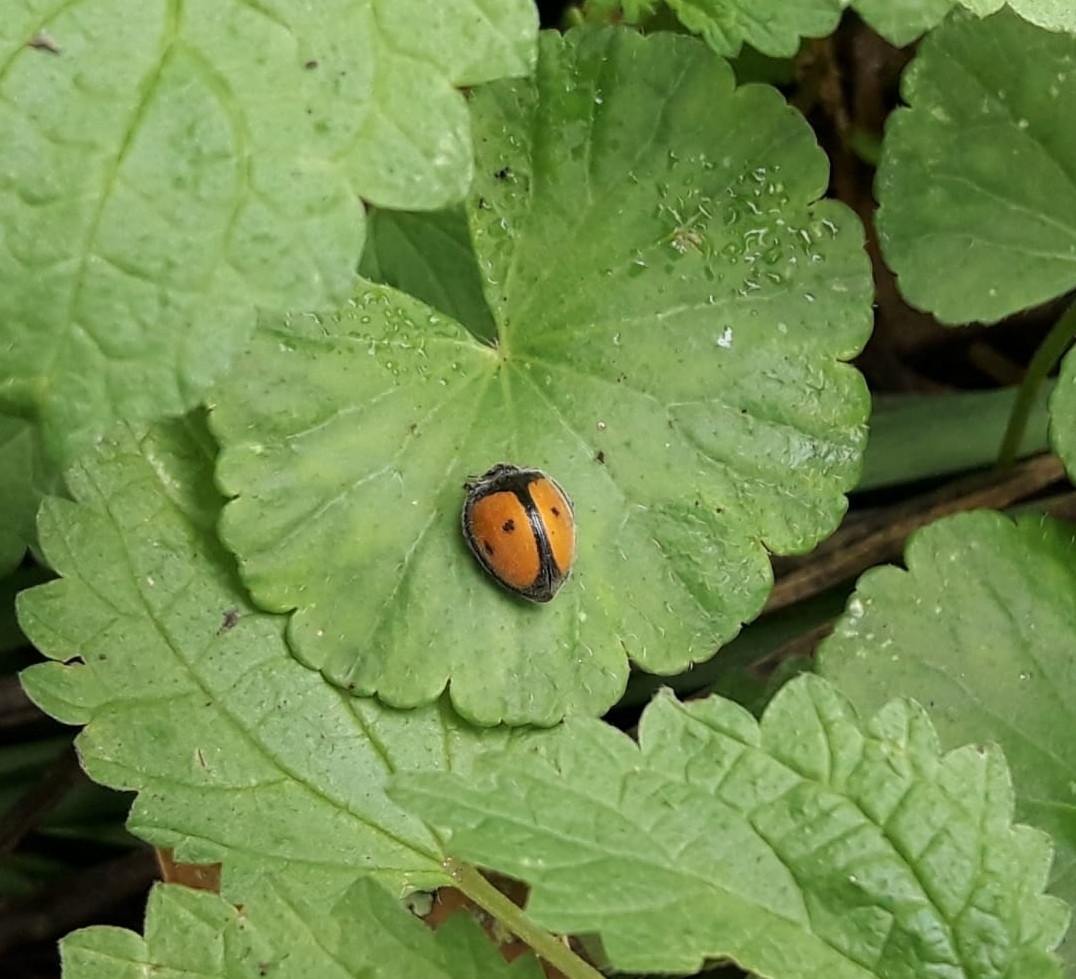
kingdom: Animalia
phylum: Arthropoda
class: Insecta
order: Coleoptera
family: Coccinellidae
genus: Epilachna
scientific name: Epilachna
